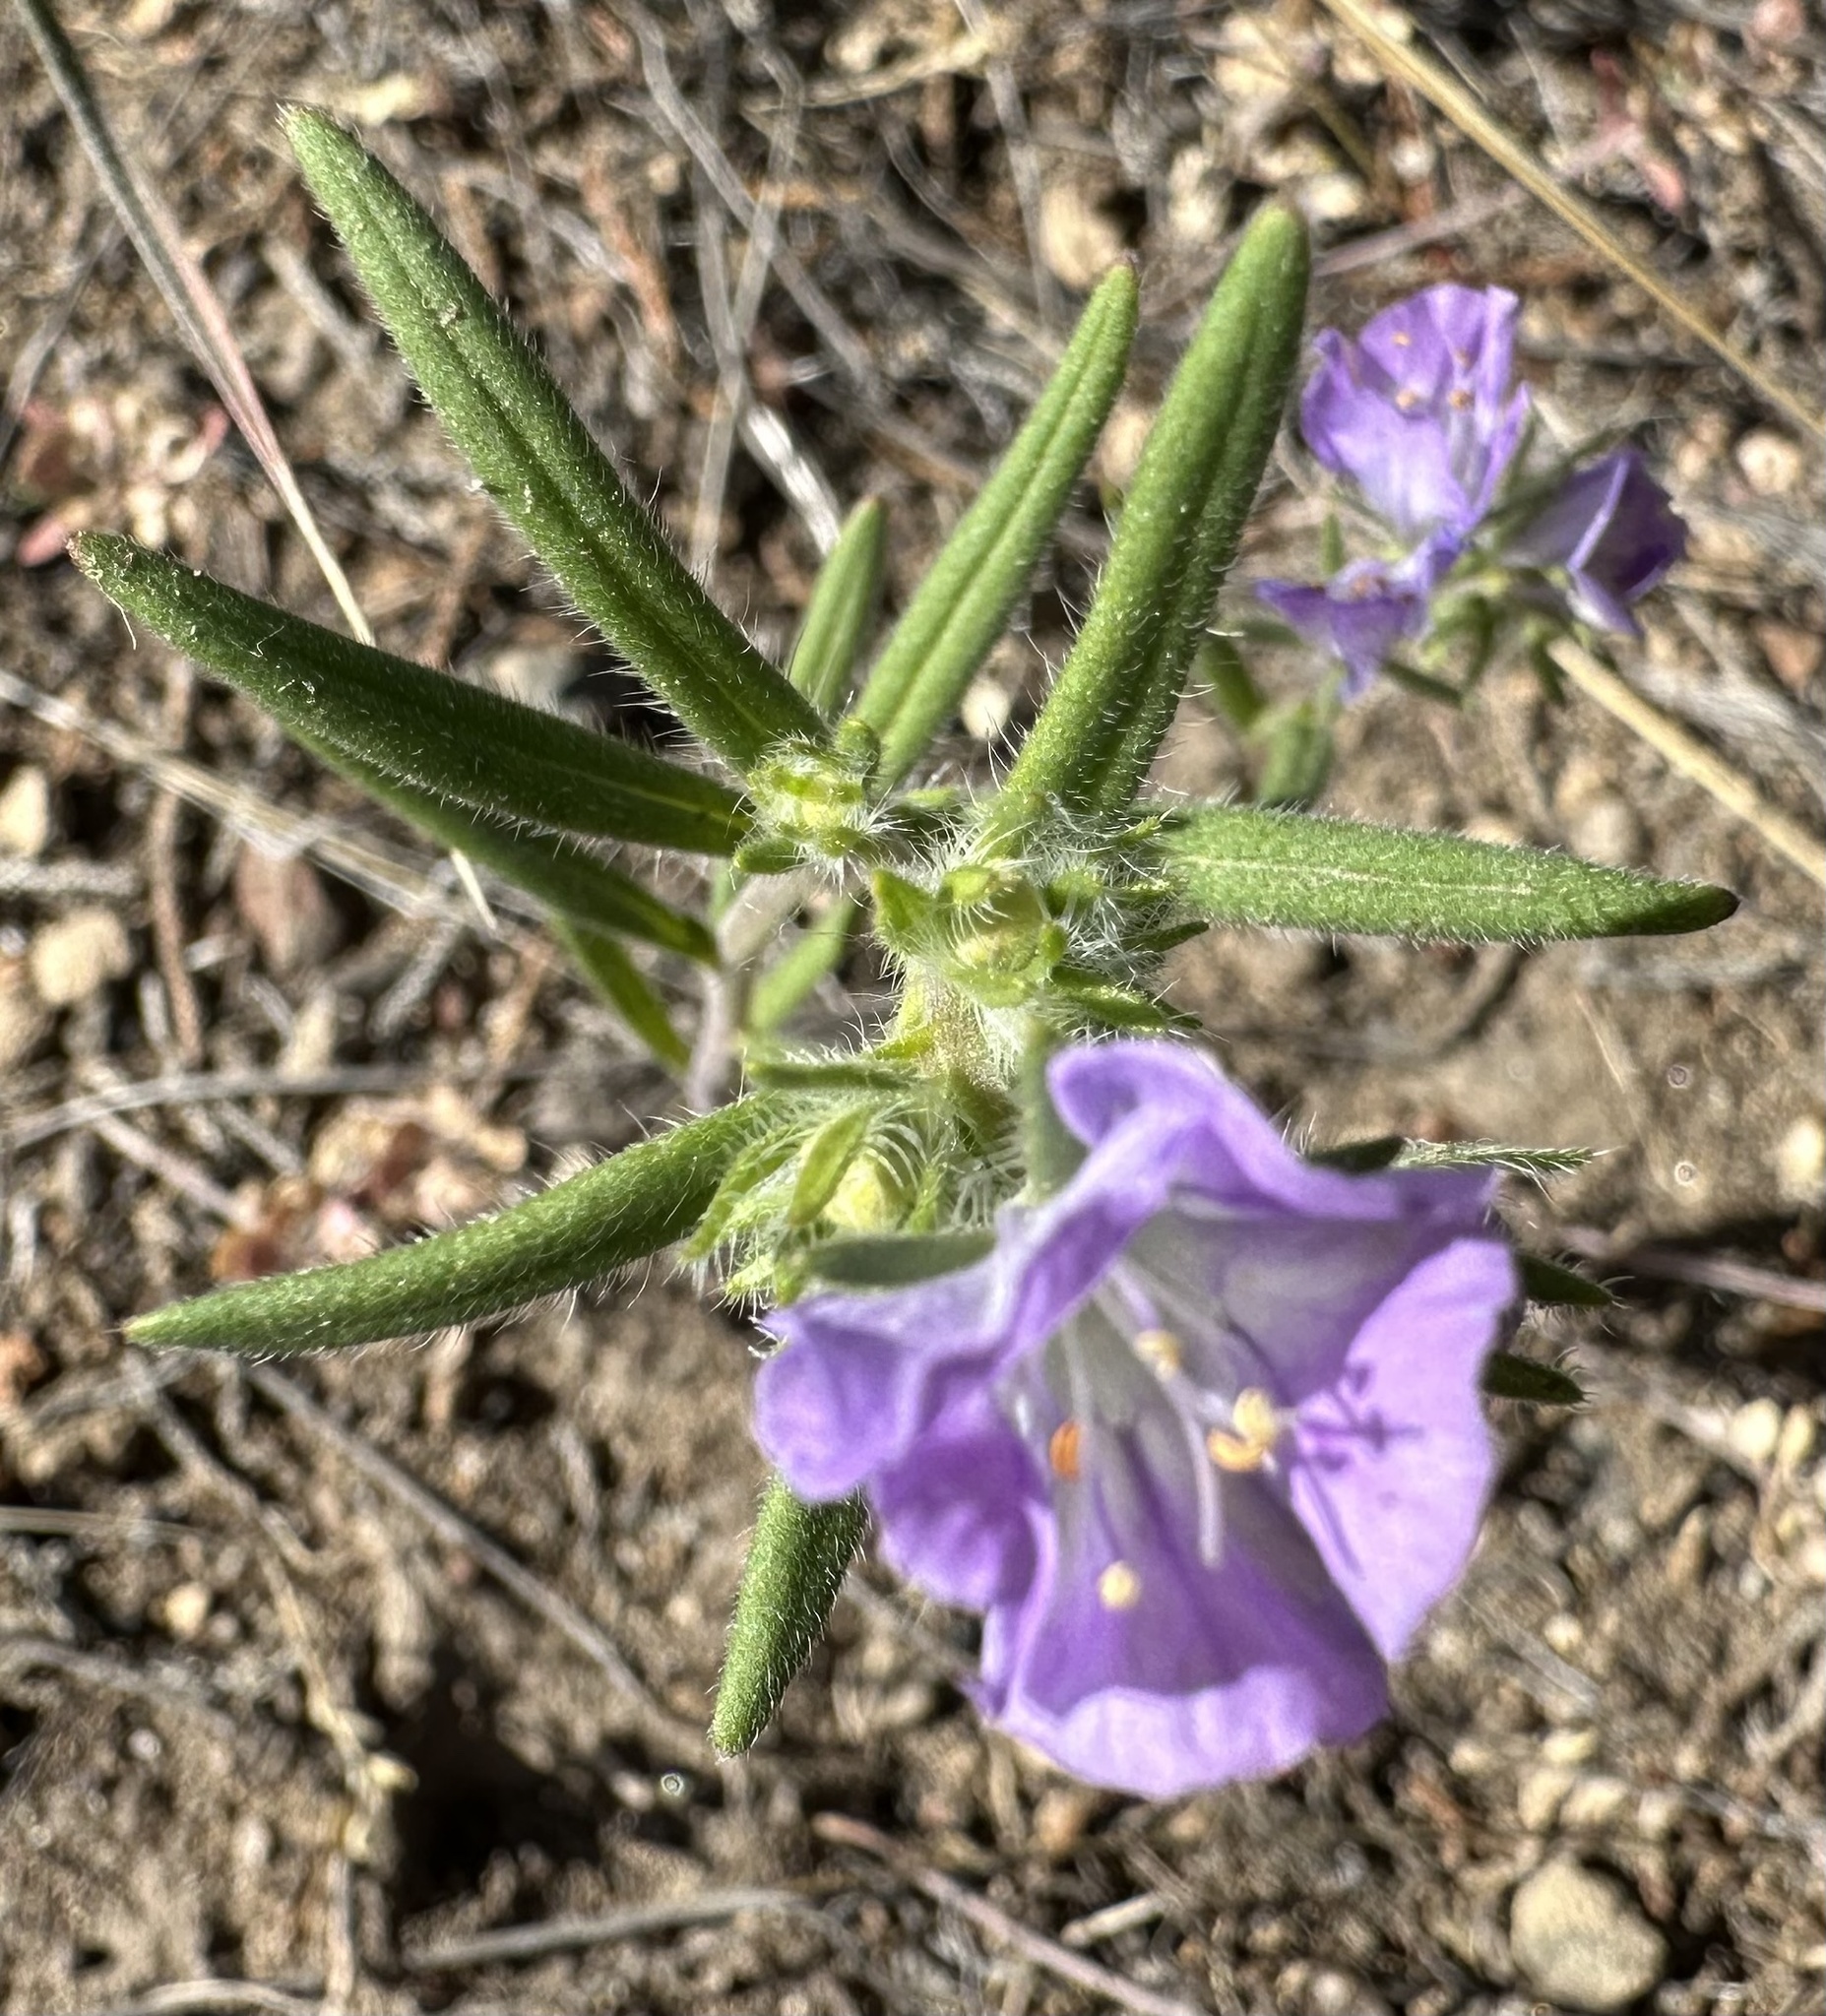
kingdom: Plantae
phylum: Tracheophyta
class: Magnoliopsida
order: Boraginales
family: Hydrophyllaceae
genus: Phacelia
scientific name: Phacelia linearis
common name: Linear-leaved phacelia
